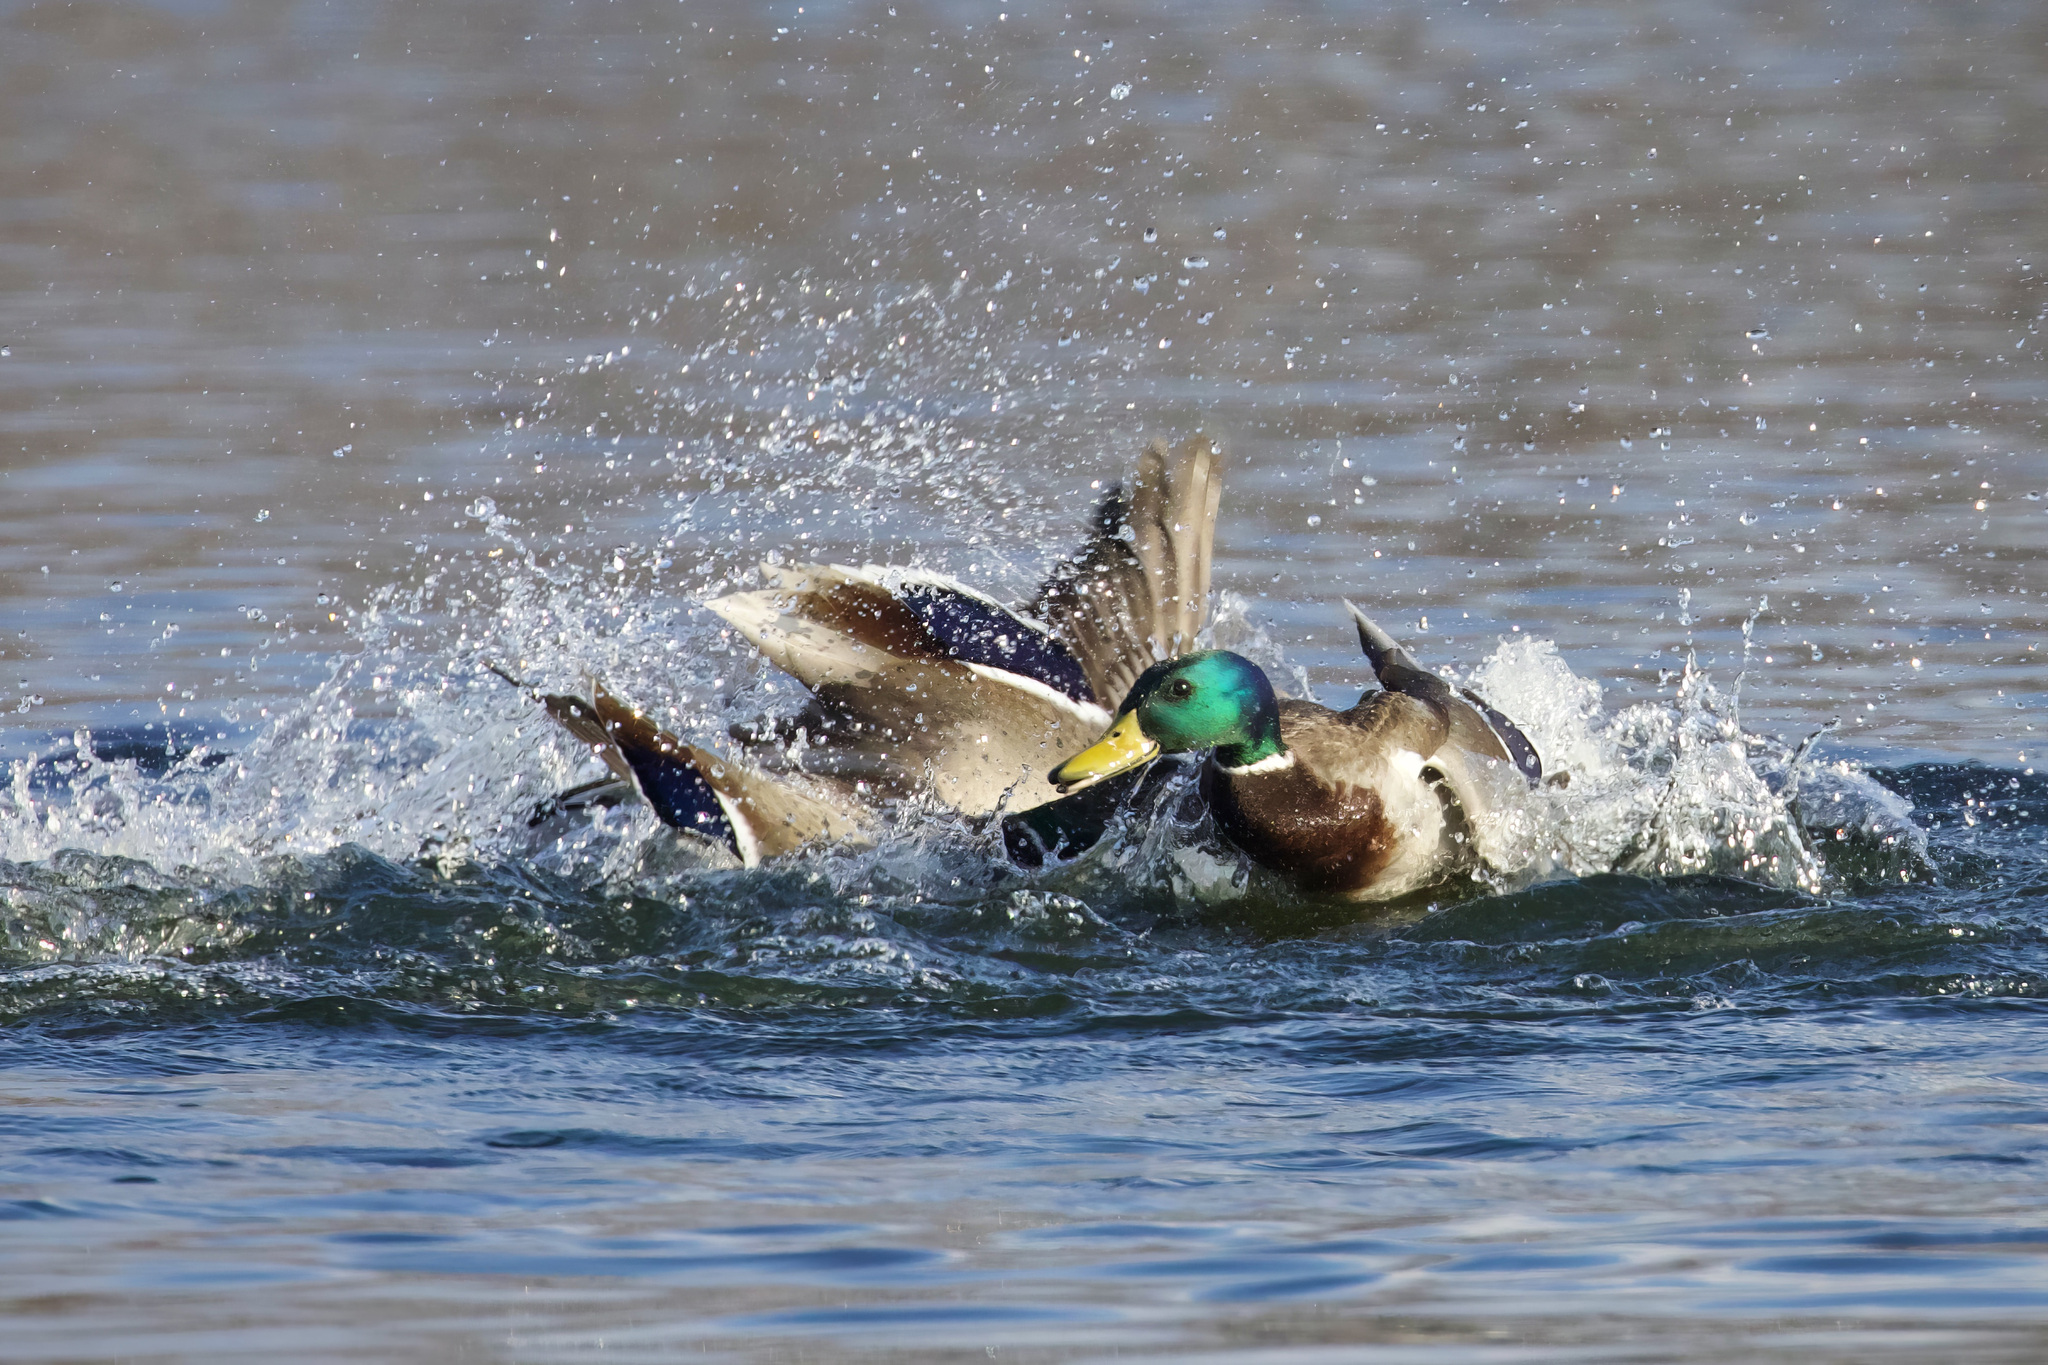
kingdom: Animalia
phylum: Chordata
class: Aves
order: Anseriformes
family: Anatidae
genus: Anas
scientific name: Anas platyrhynchos
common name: Mallard
